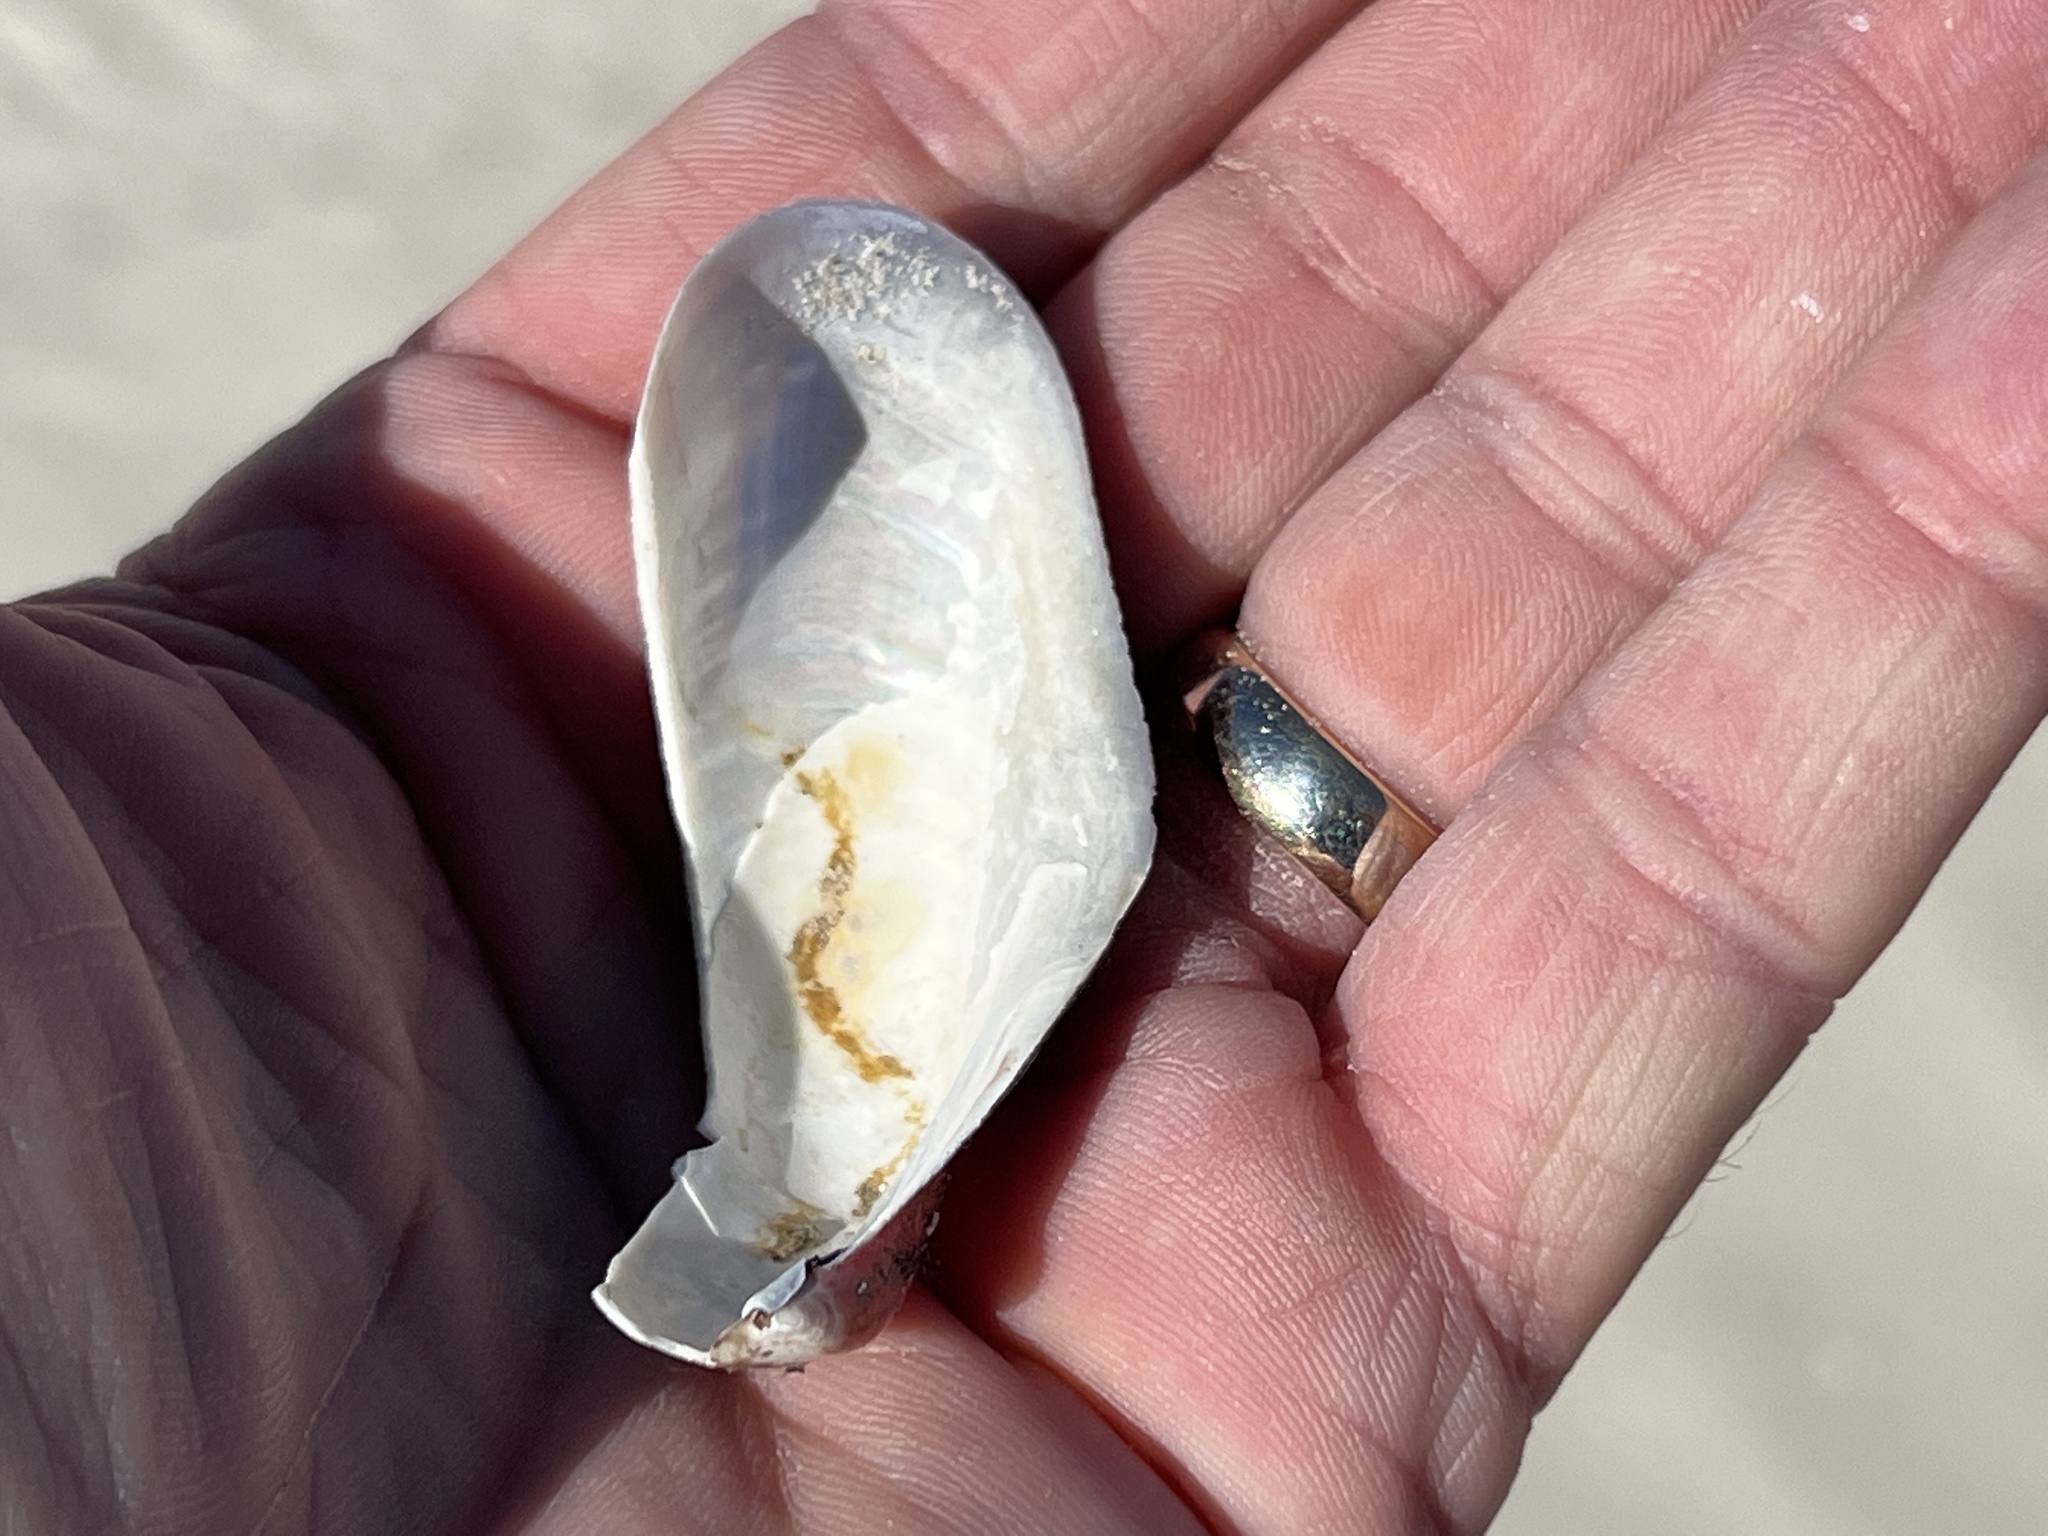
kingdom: Animalia
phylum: Mollusca
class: Bivalvia
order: Mytilida
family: Mytilidae
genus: Modiolus
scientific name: Modiolus americanus
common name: Tulip mussel
